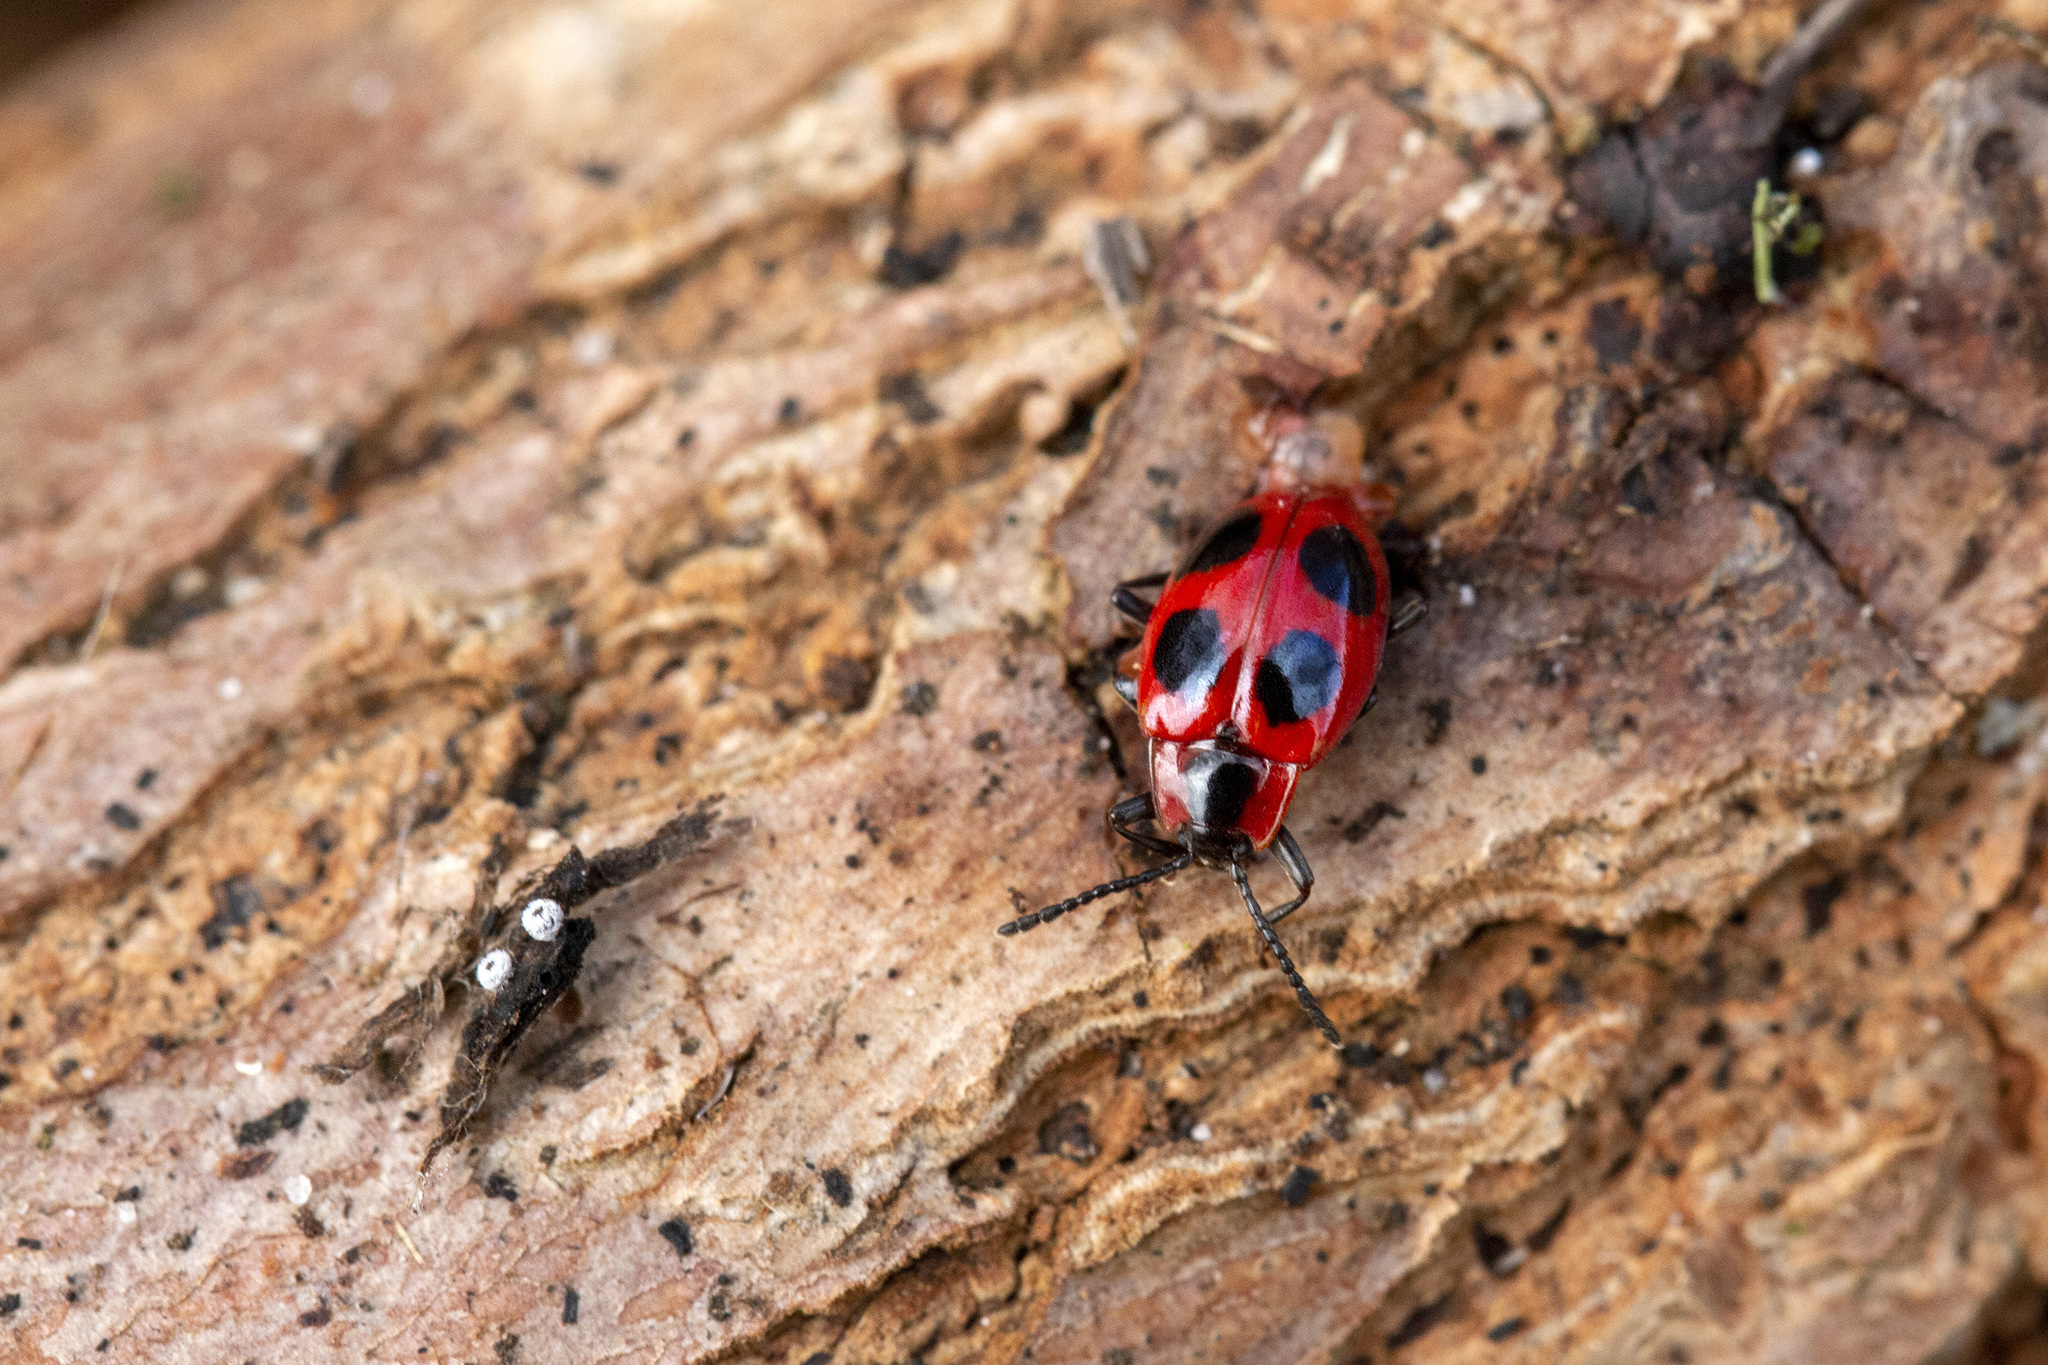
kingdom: Animalia
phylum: Arthropoda
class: Insecta
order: Coleoptera
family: Endomychidae
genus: Endomychus
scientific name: Endomychus coccineus
